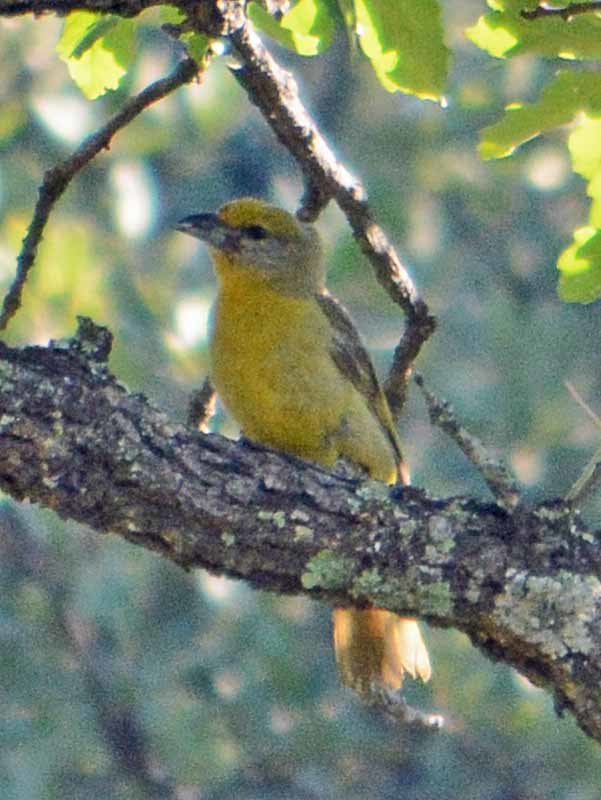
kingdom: Animalia
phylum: Chordata
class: Aves
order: Passeriformes
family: Cardinalidae
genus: Piranga
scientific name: Piranga flava
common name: Red tanager
